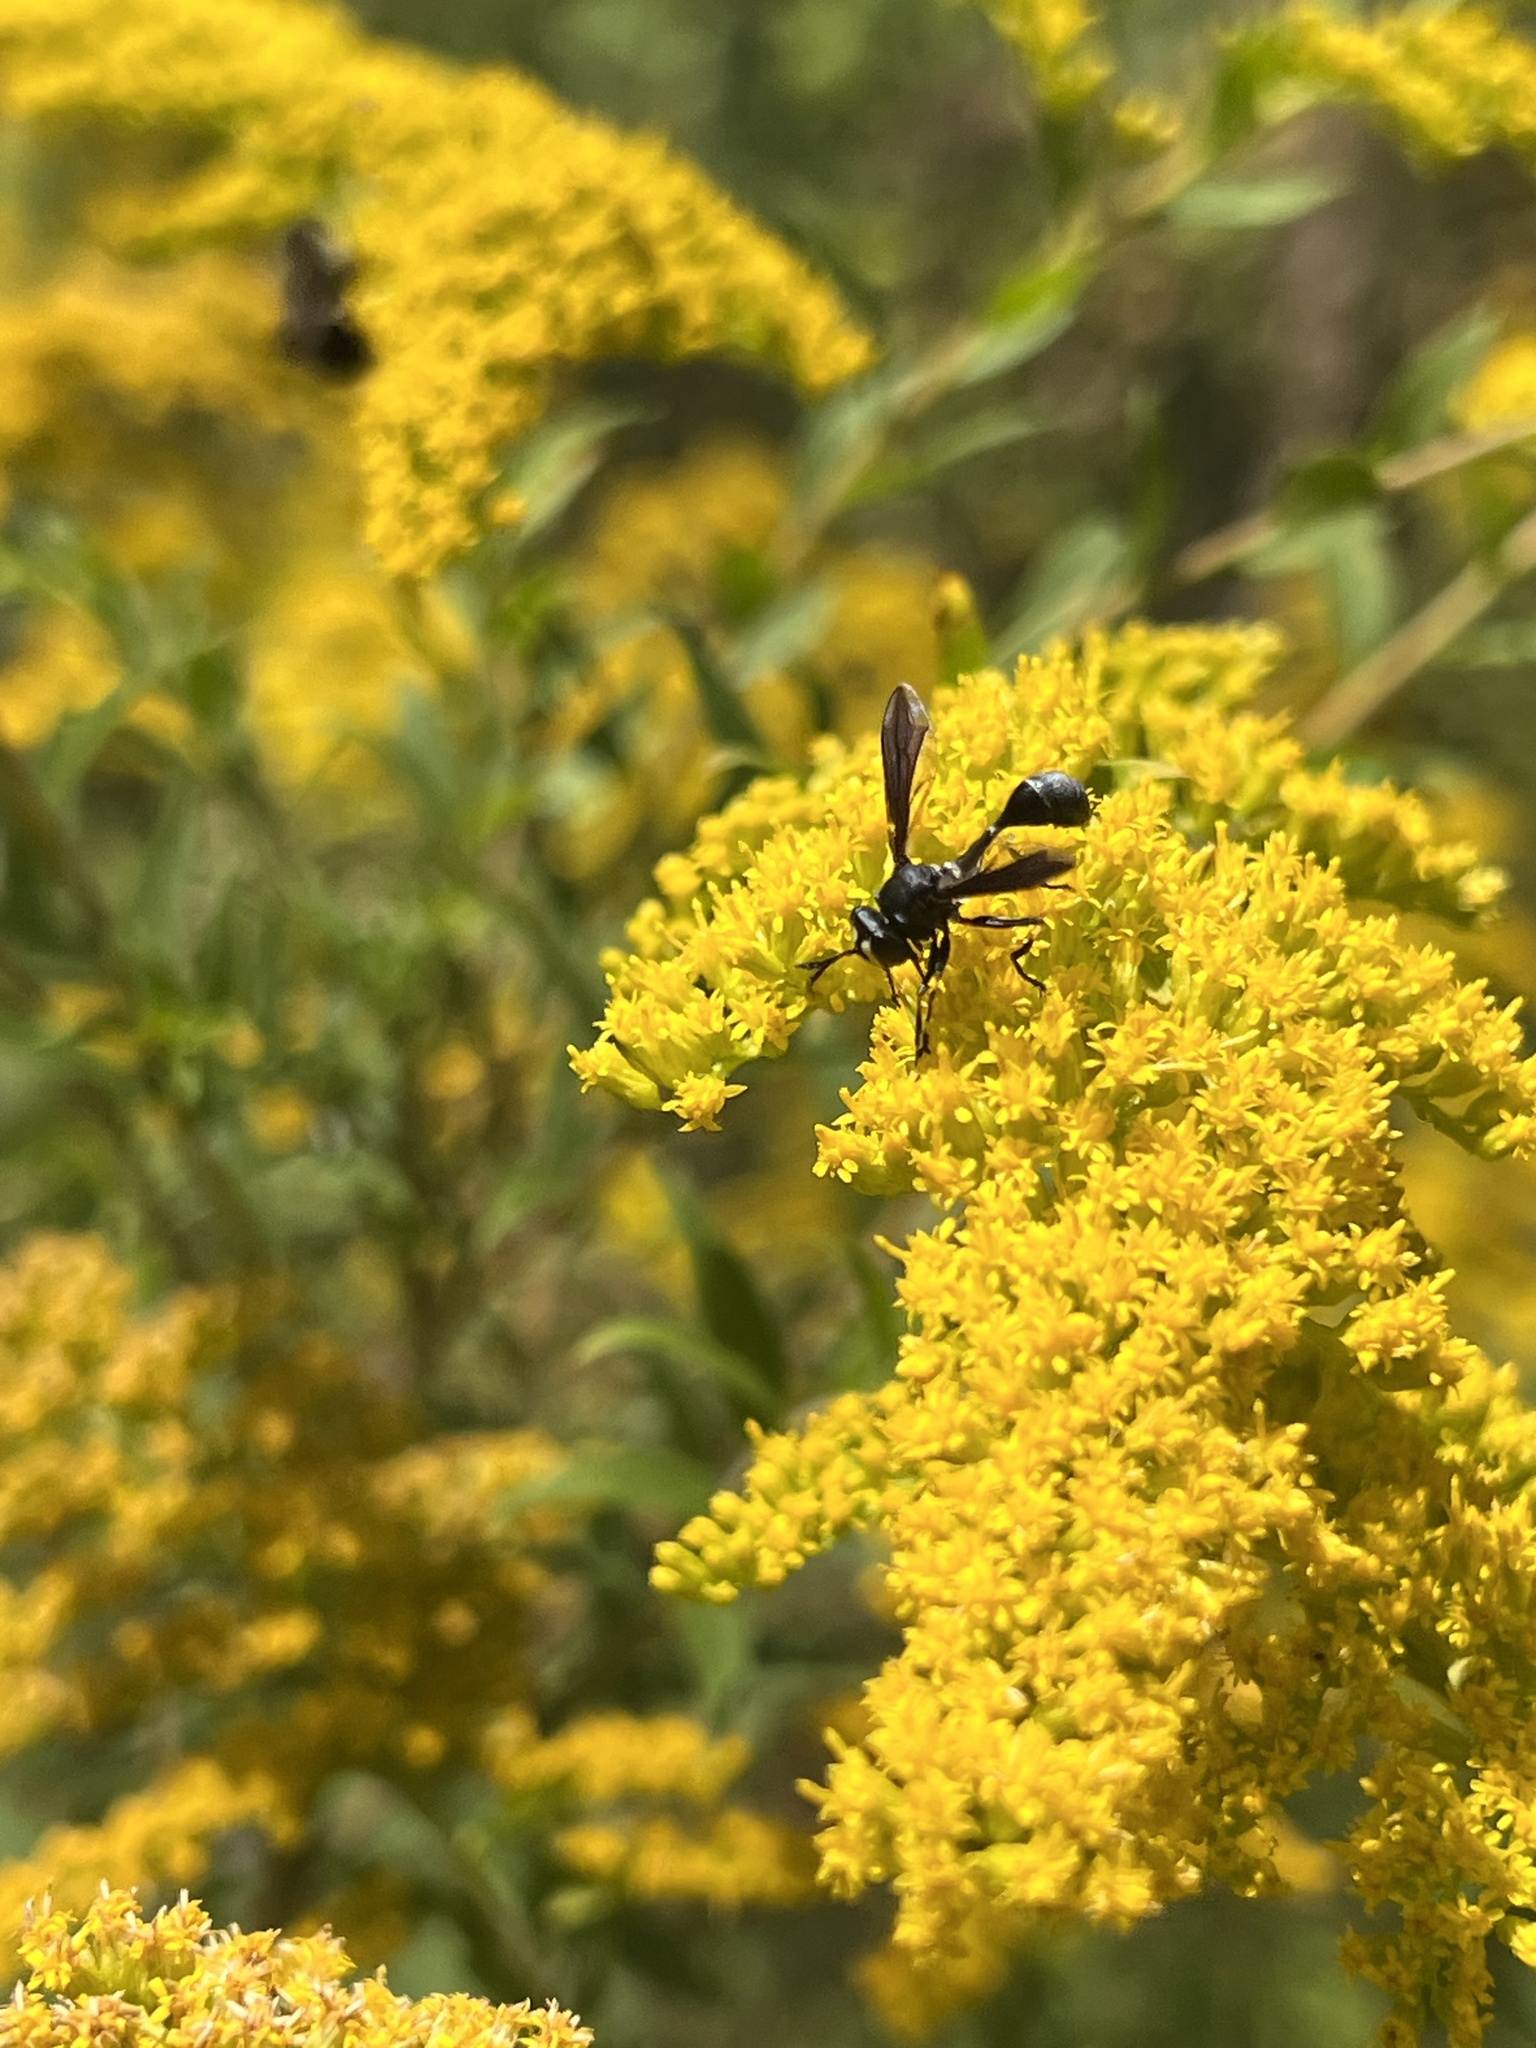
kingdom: Animalia
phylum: Arthropoda
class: Insecta
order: Diptera
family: Conopidae
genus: Physocephala
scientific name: Physocephala tibialis
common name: Common eastern physocephala
